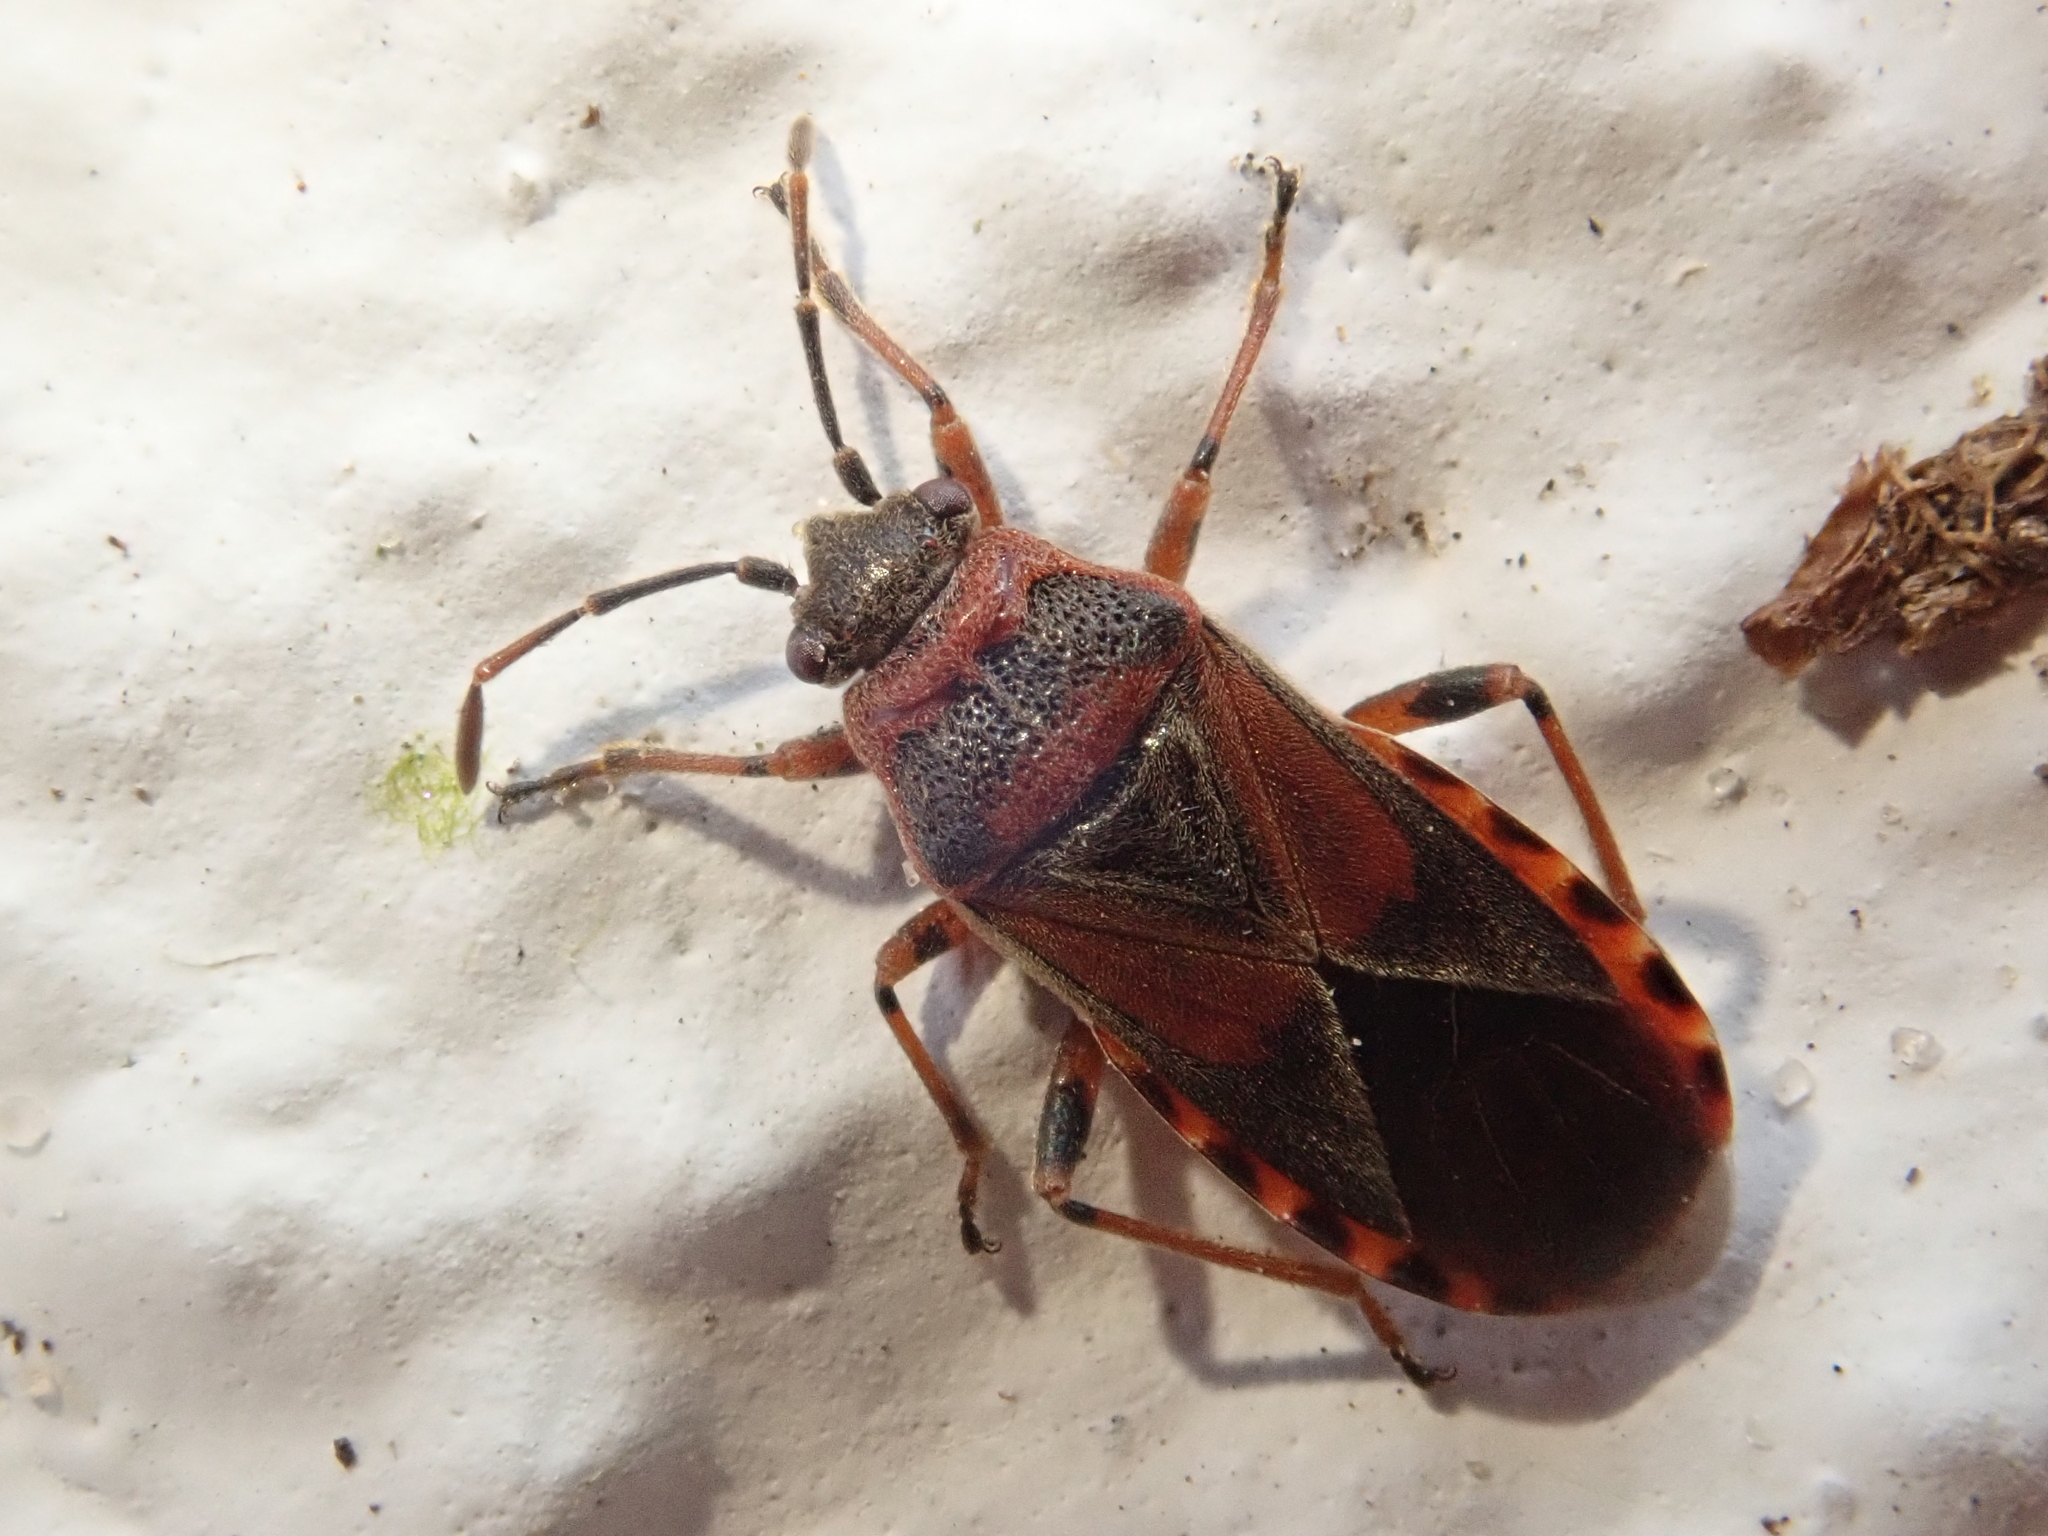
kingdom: Animalia
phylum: Arthropoda
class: Insecta
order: Hemiptera
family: Lygaeidae
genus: Arocatus
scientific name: Arocatus melanocephalus
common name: Lygaeid bug
